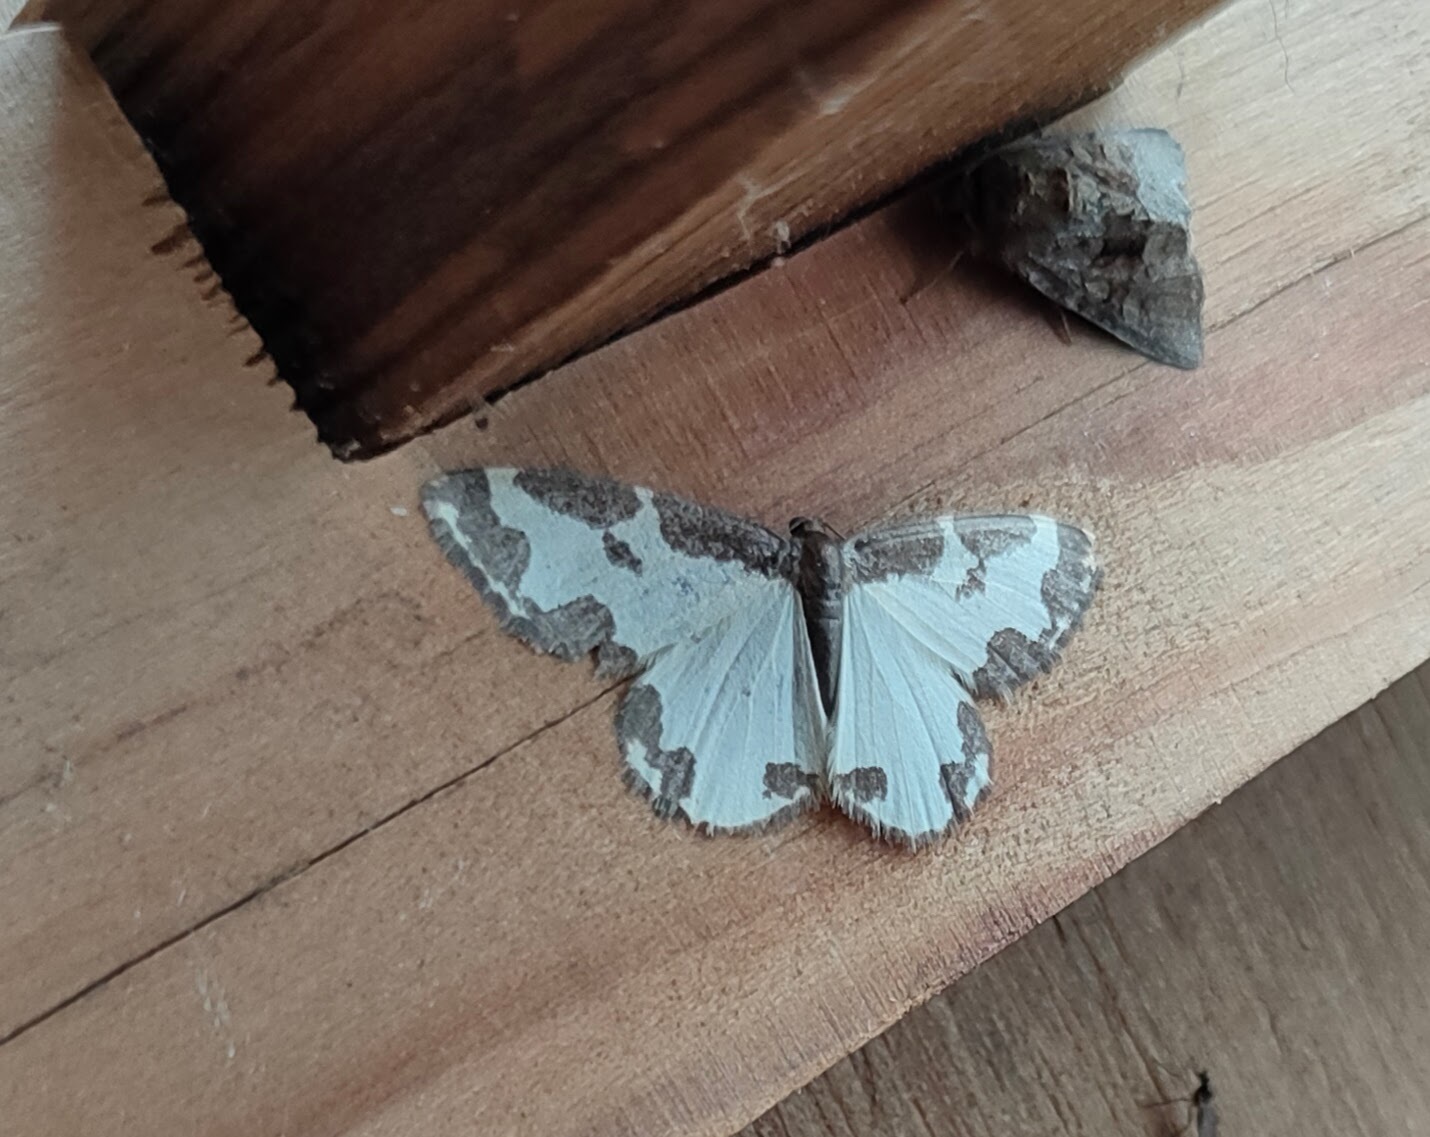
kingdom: Animalia
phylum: Arthropoda
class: Insecta
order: Lepidoptera
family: Geometridae
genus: Lomaspilis
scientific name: Lomaspilis marginata
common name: Clouded border
